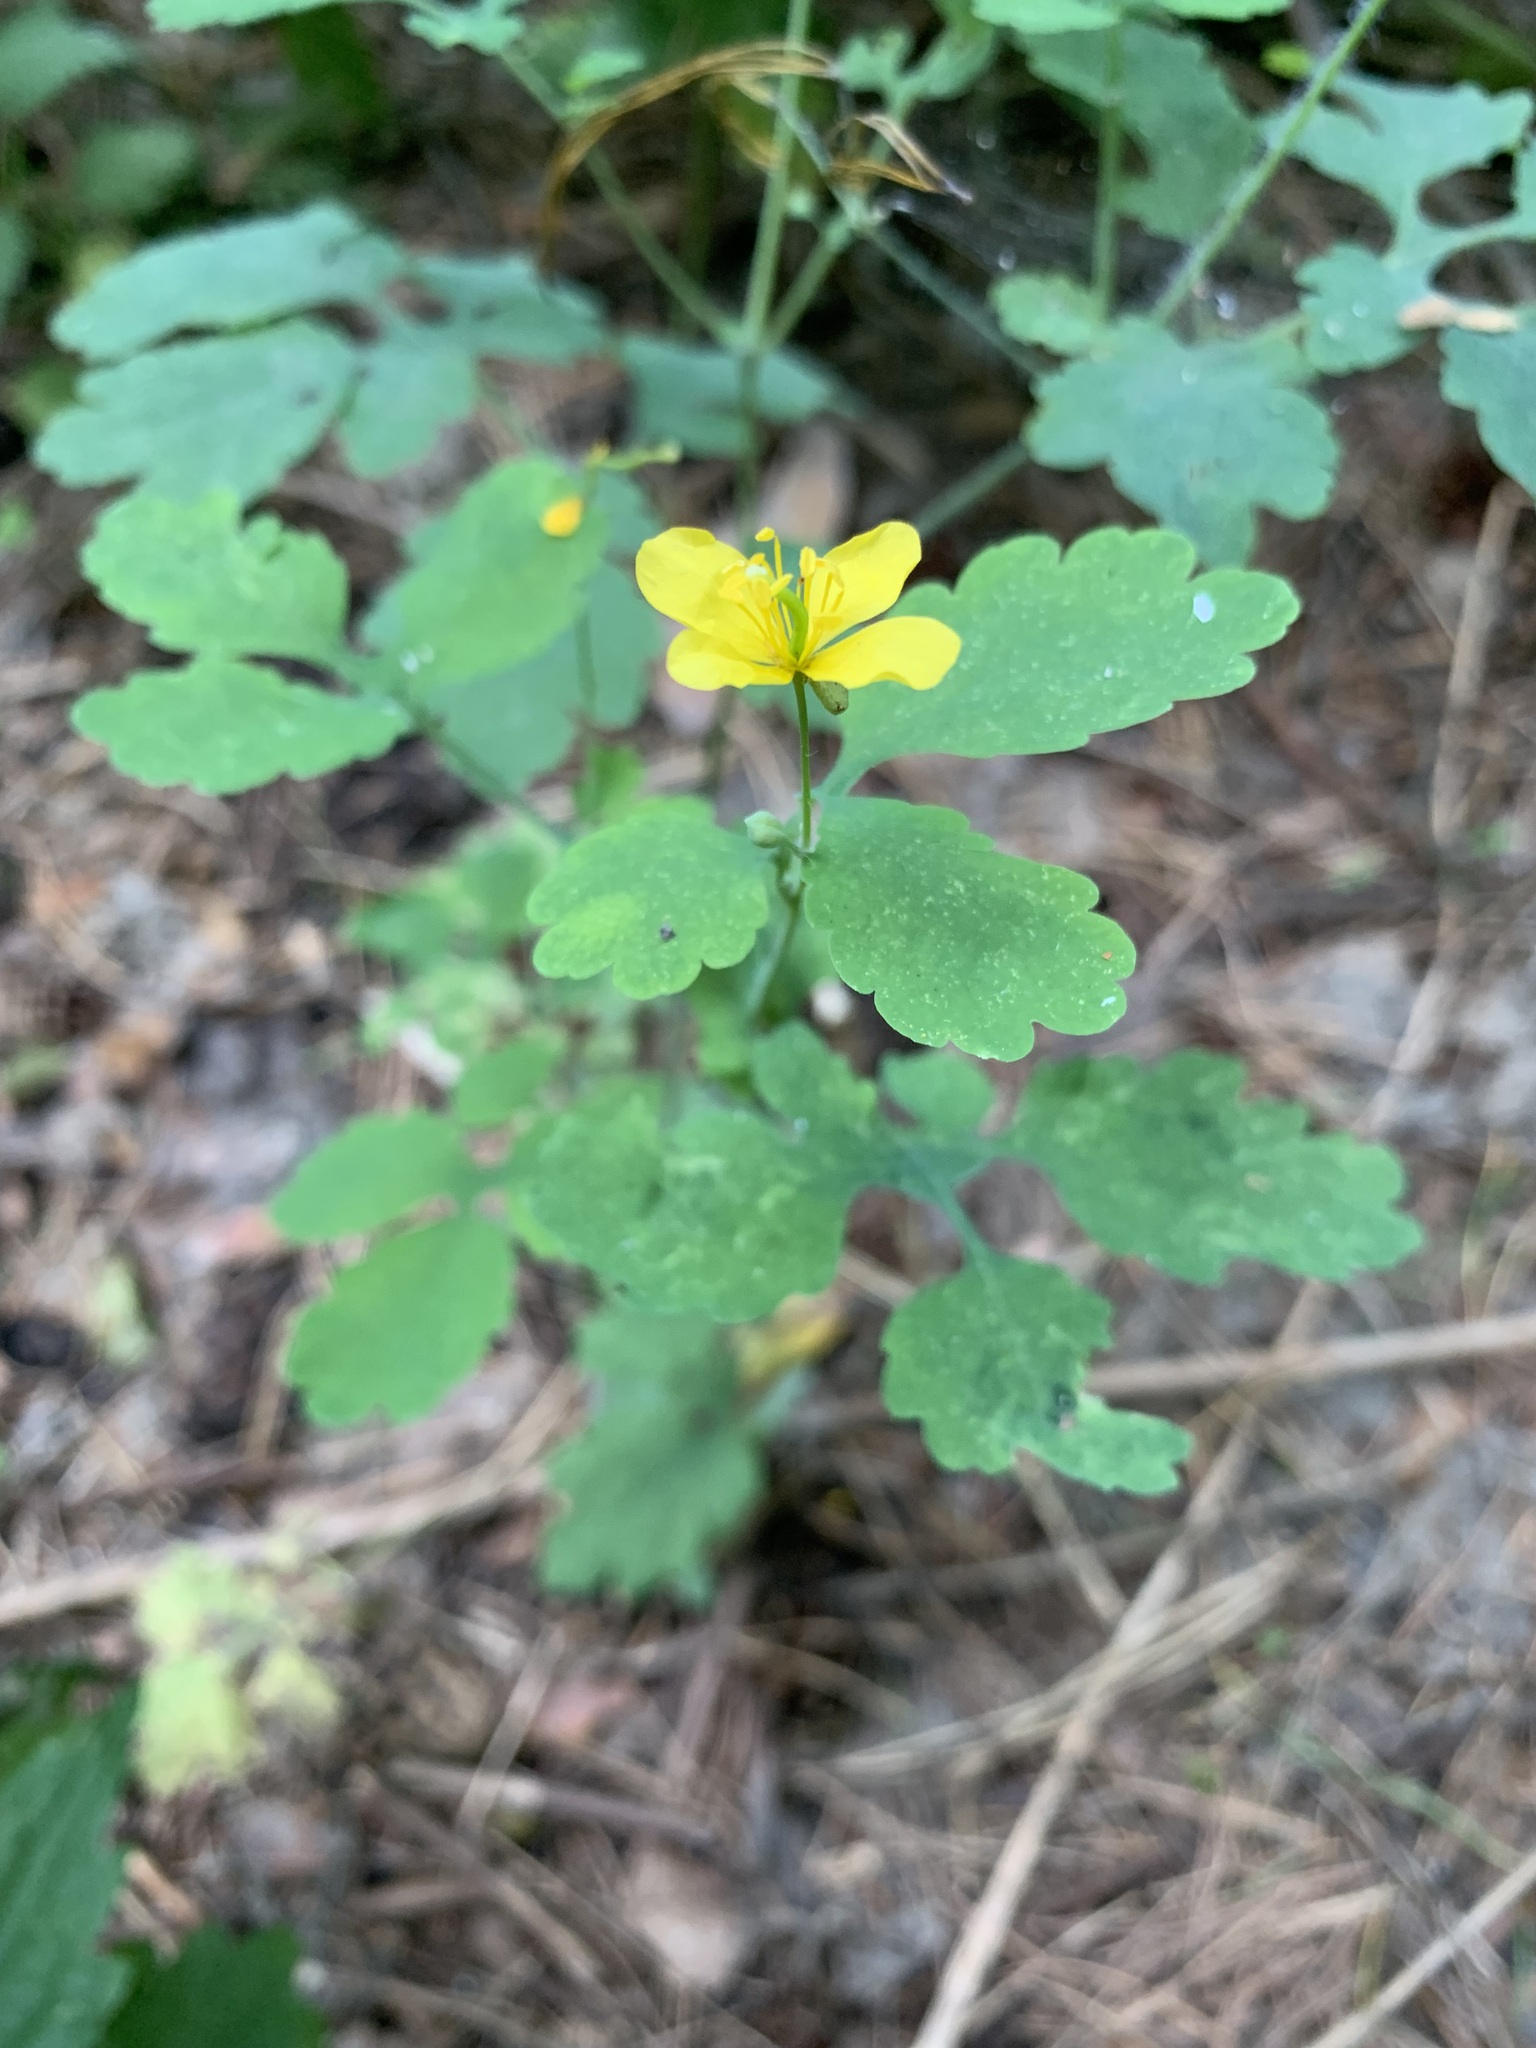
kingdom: Plantae
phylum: Tracheophyta
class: Magnoliopsida
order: Ranunculales
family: Papaveraceae
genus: Chelidonium
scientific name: Chelidonium majus
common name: Greater celandine
